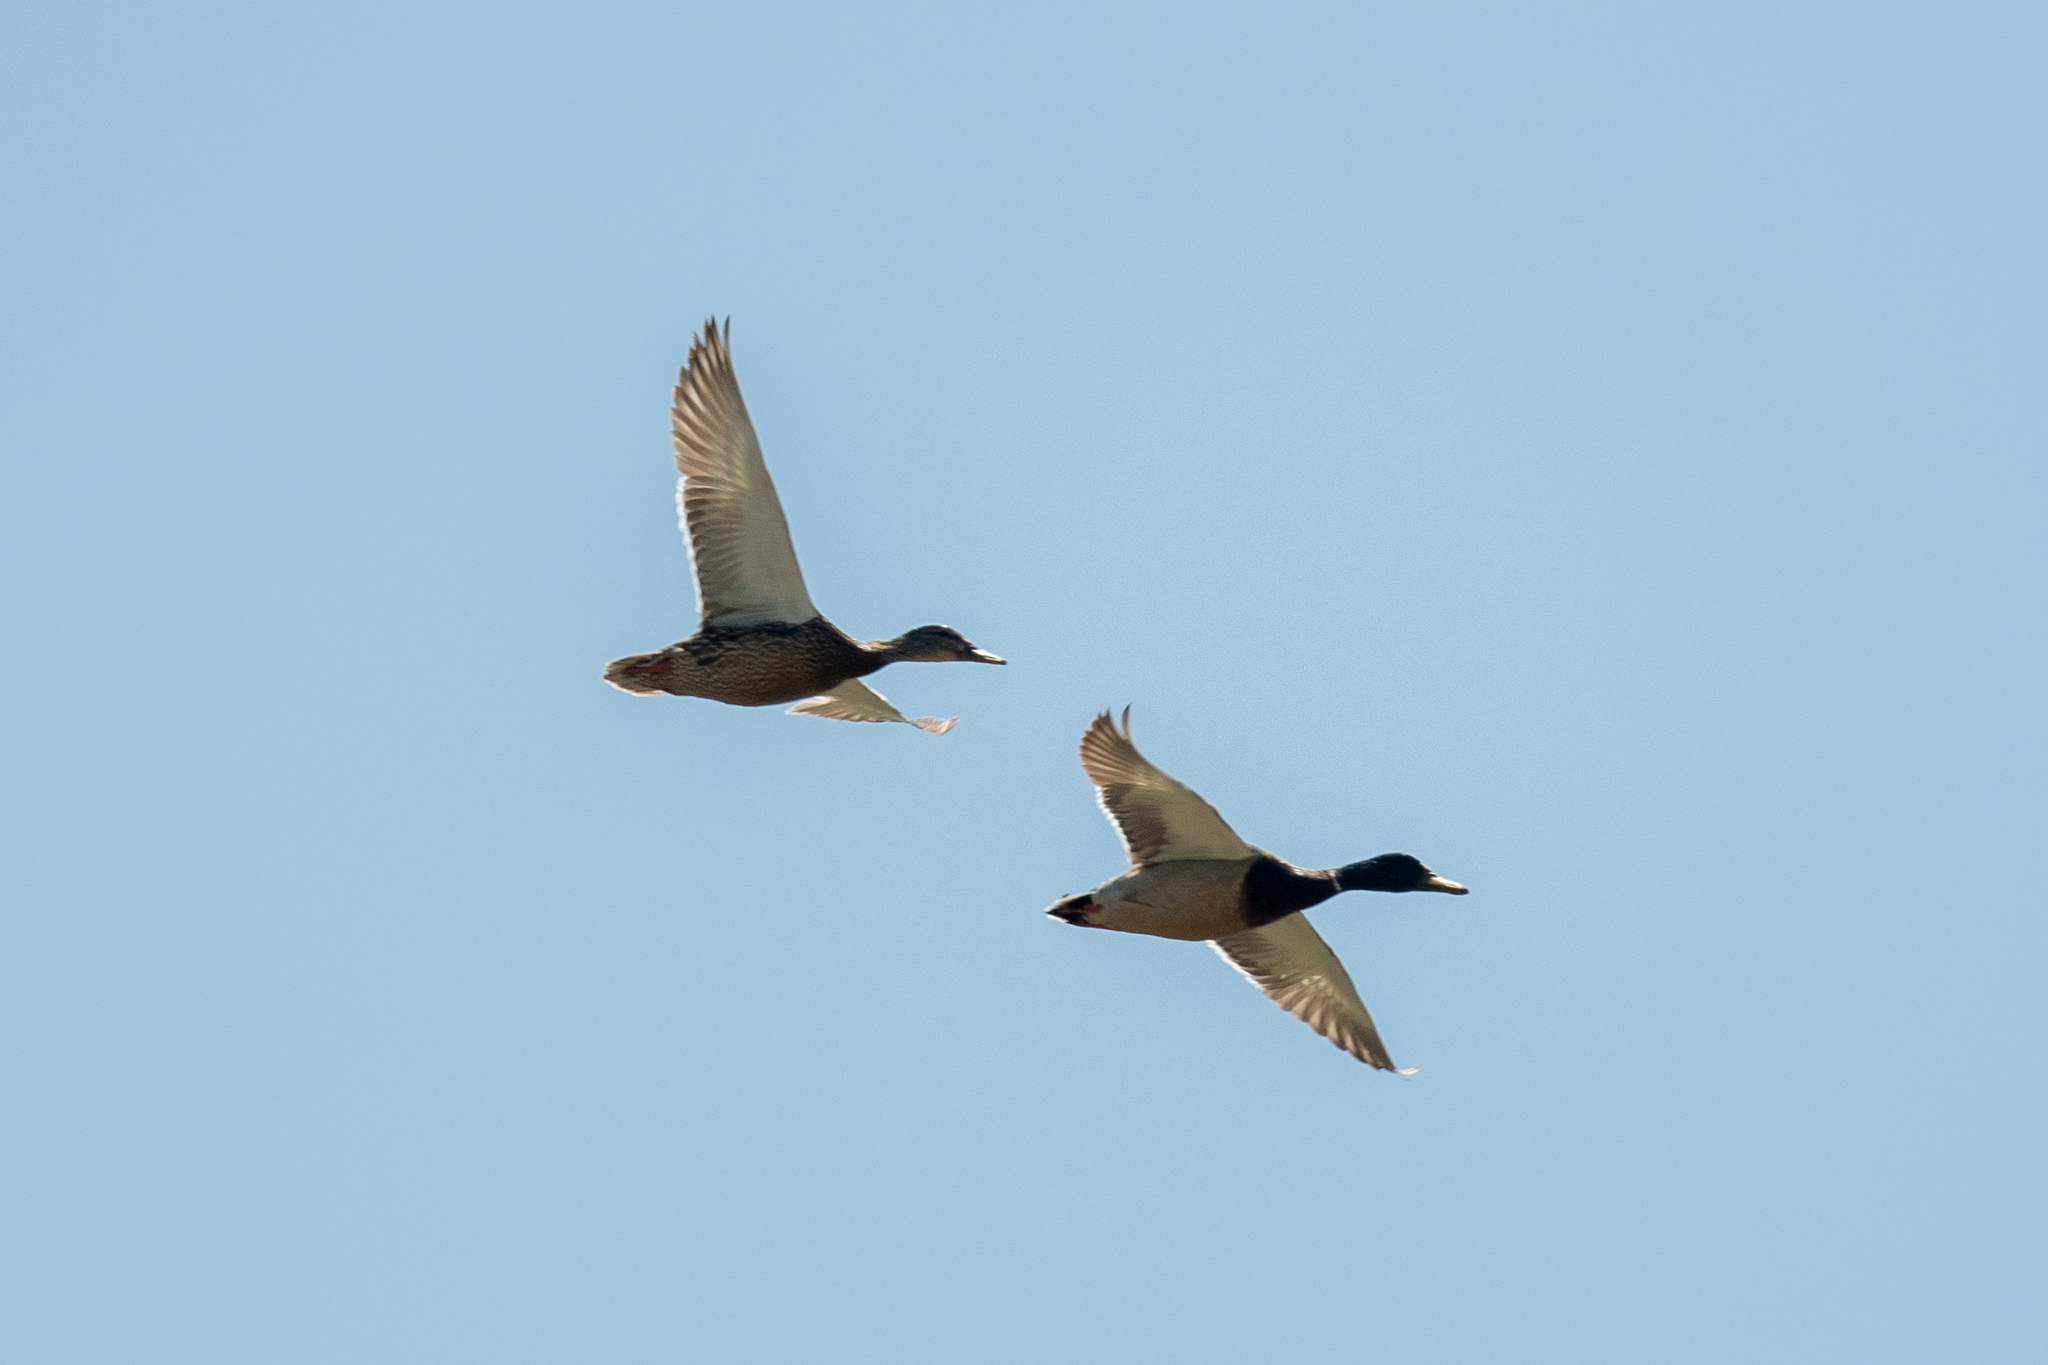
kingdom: Animalia
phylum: Chordata
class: Aves
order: Anseriformes
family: Anatidae
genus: Anas
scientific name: Anas platyrhynchos
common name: Mallard
